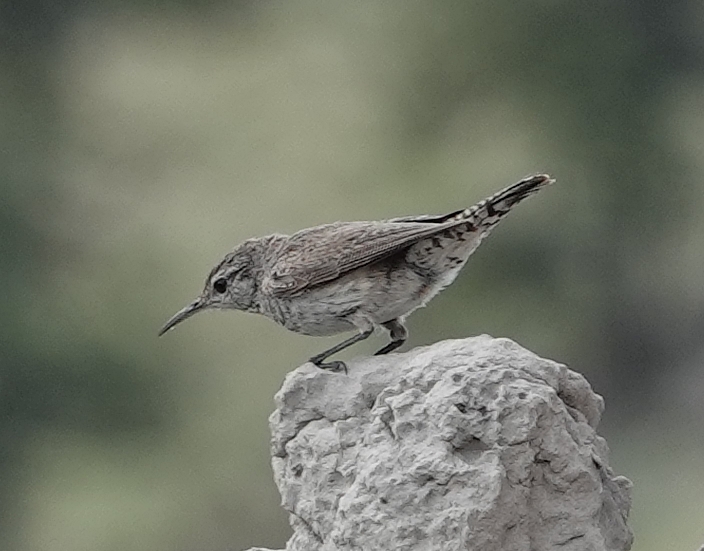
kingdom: Animalia
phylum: Chordata
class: Aves
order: Passeriformes
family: Troglodytidae
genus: Salpinctes
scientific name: Salpinctes obsoletus
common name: Rock wren
